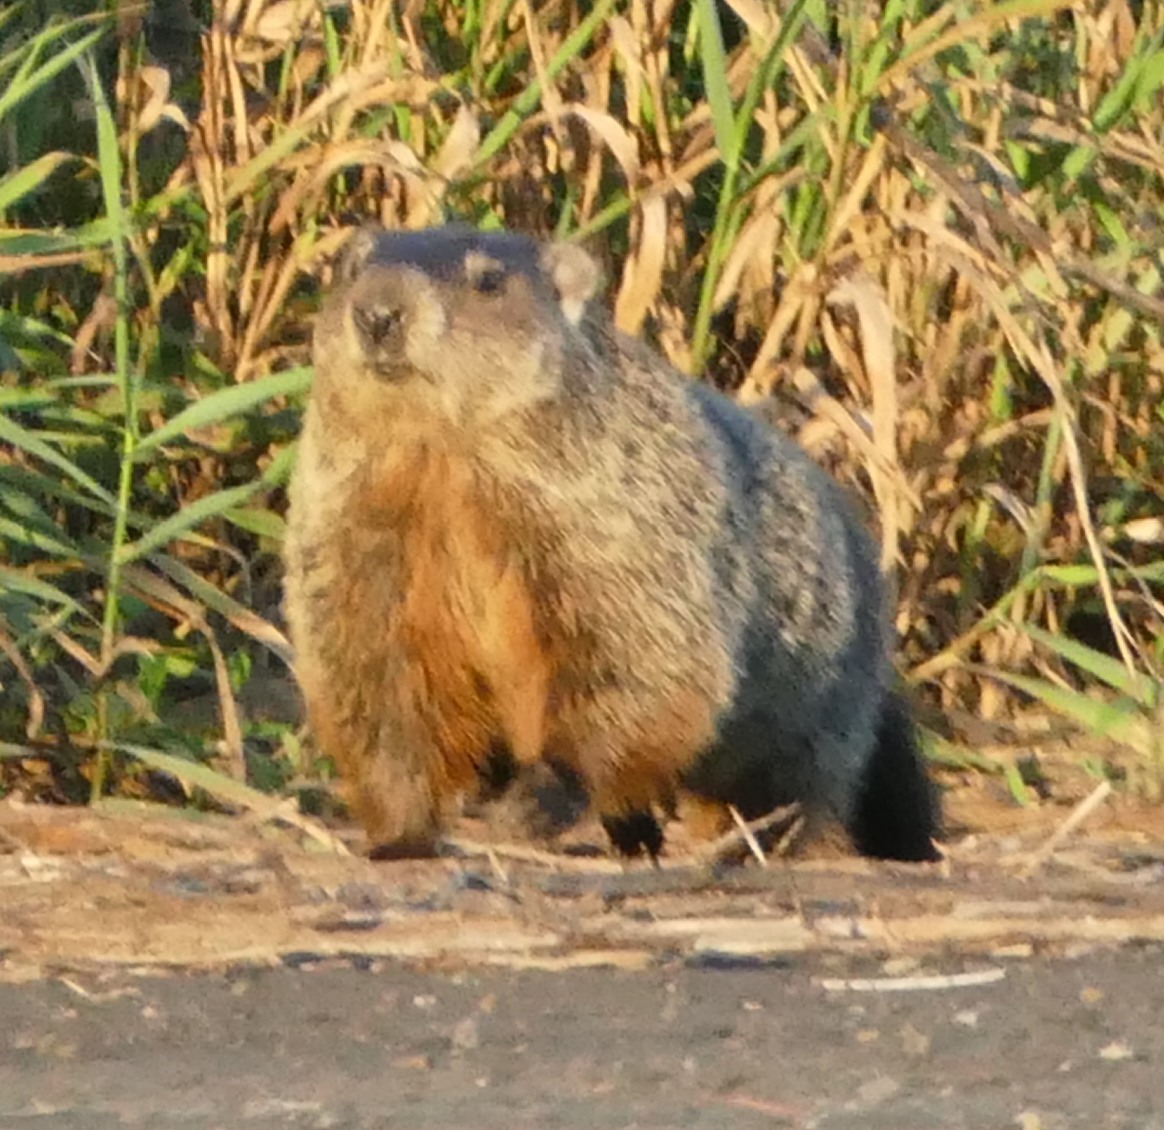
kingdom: Animalia
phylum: Chordata
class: Mammalia
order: Rodentia
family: Sciuridae
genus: Marmota
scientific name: Marmota monax
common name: Groundhog
